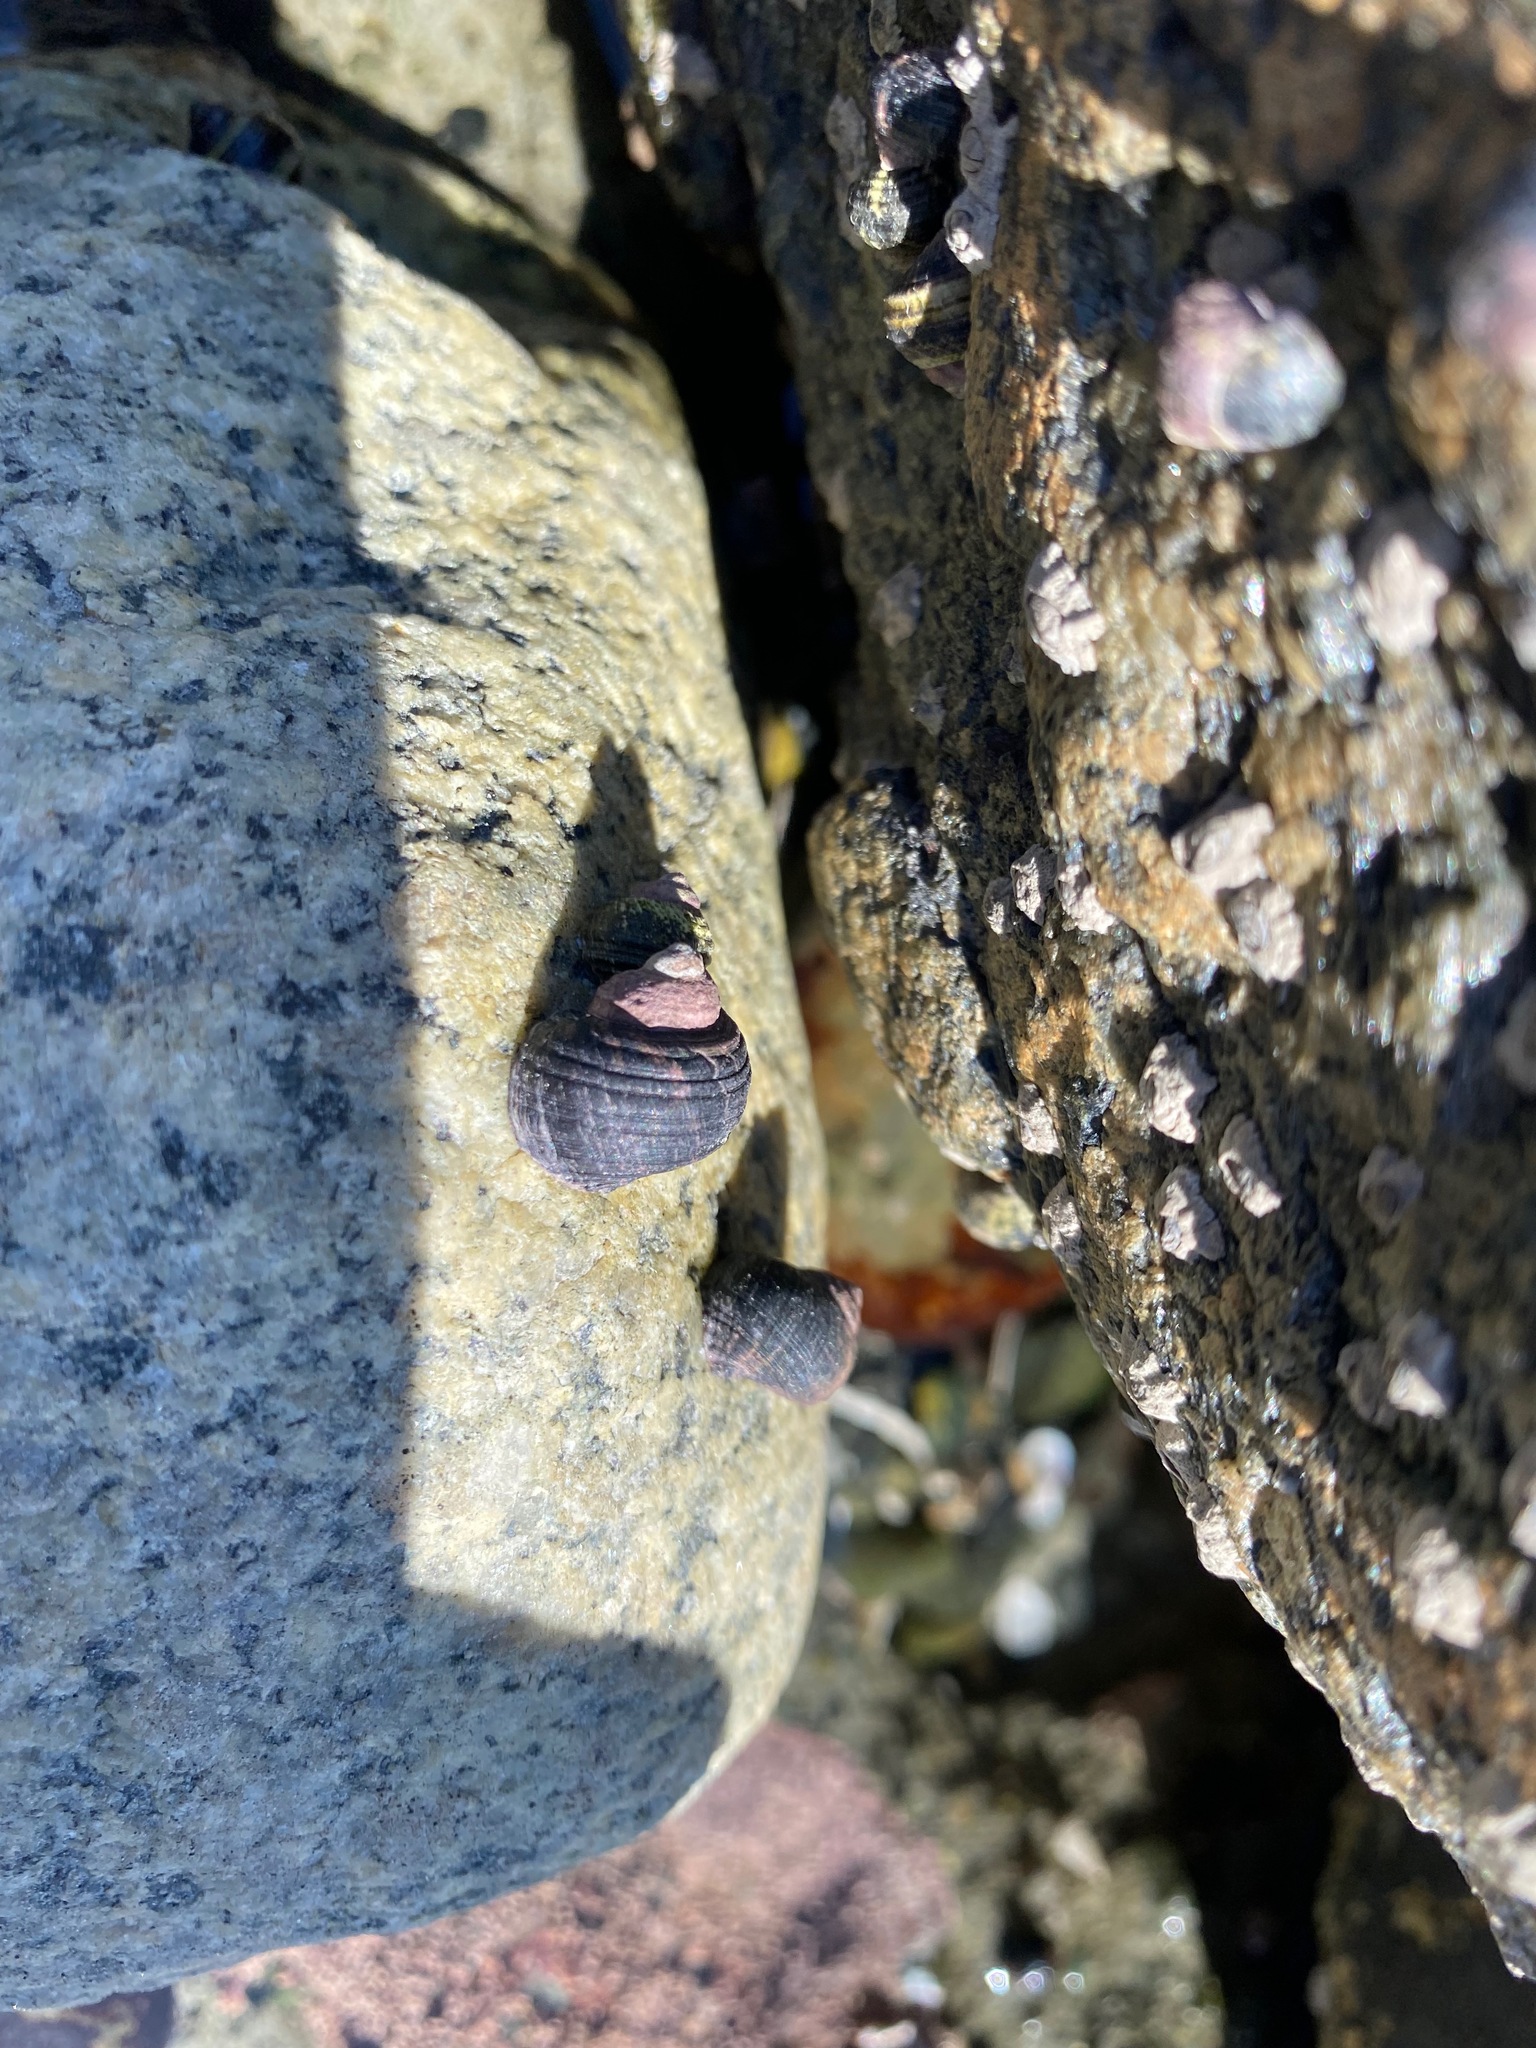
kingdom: Animalia
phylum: Mollusca
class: Gastropoda
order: Littorinimorpha
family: Littorinidae
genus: Littorina
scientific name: Littorina sitkana
